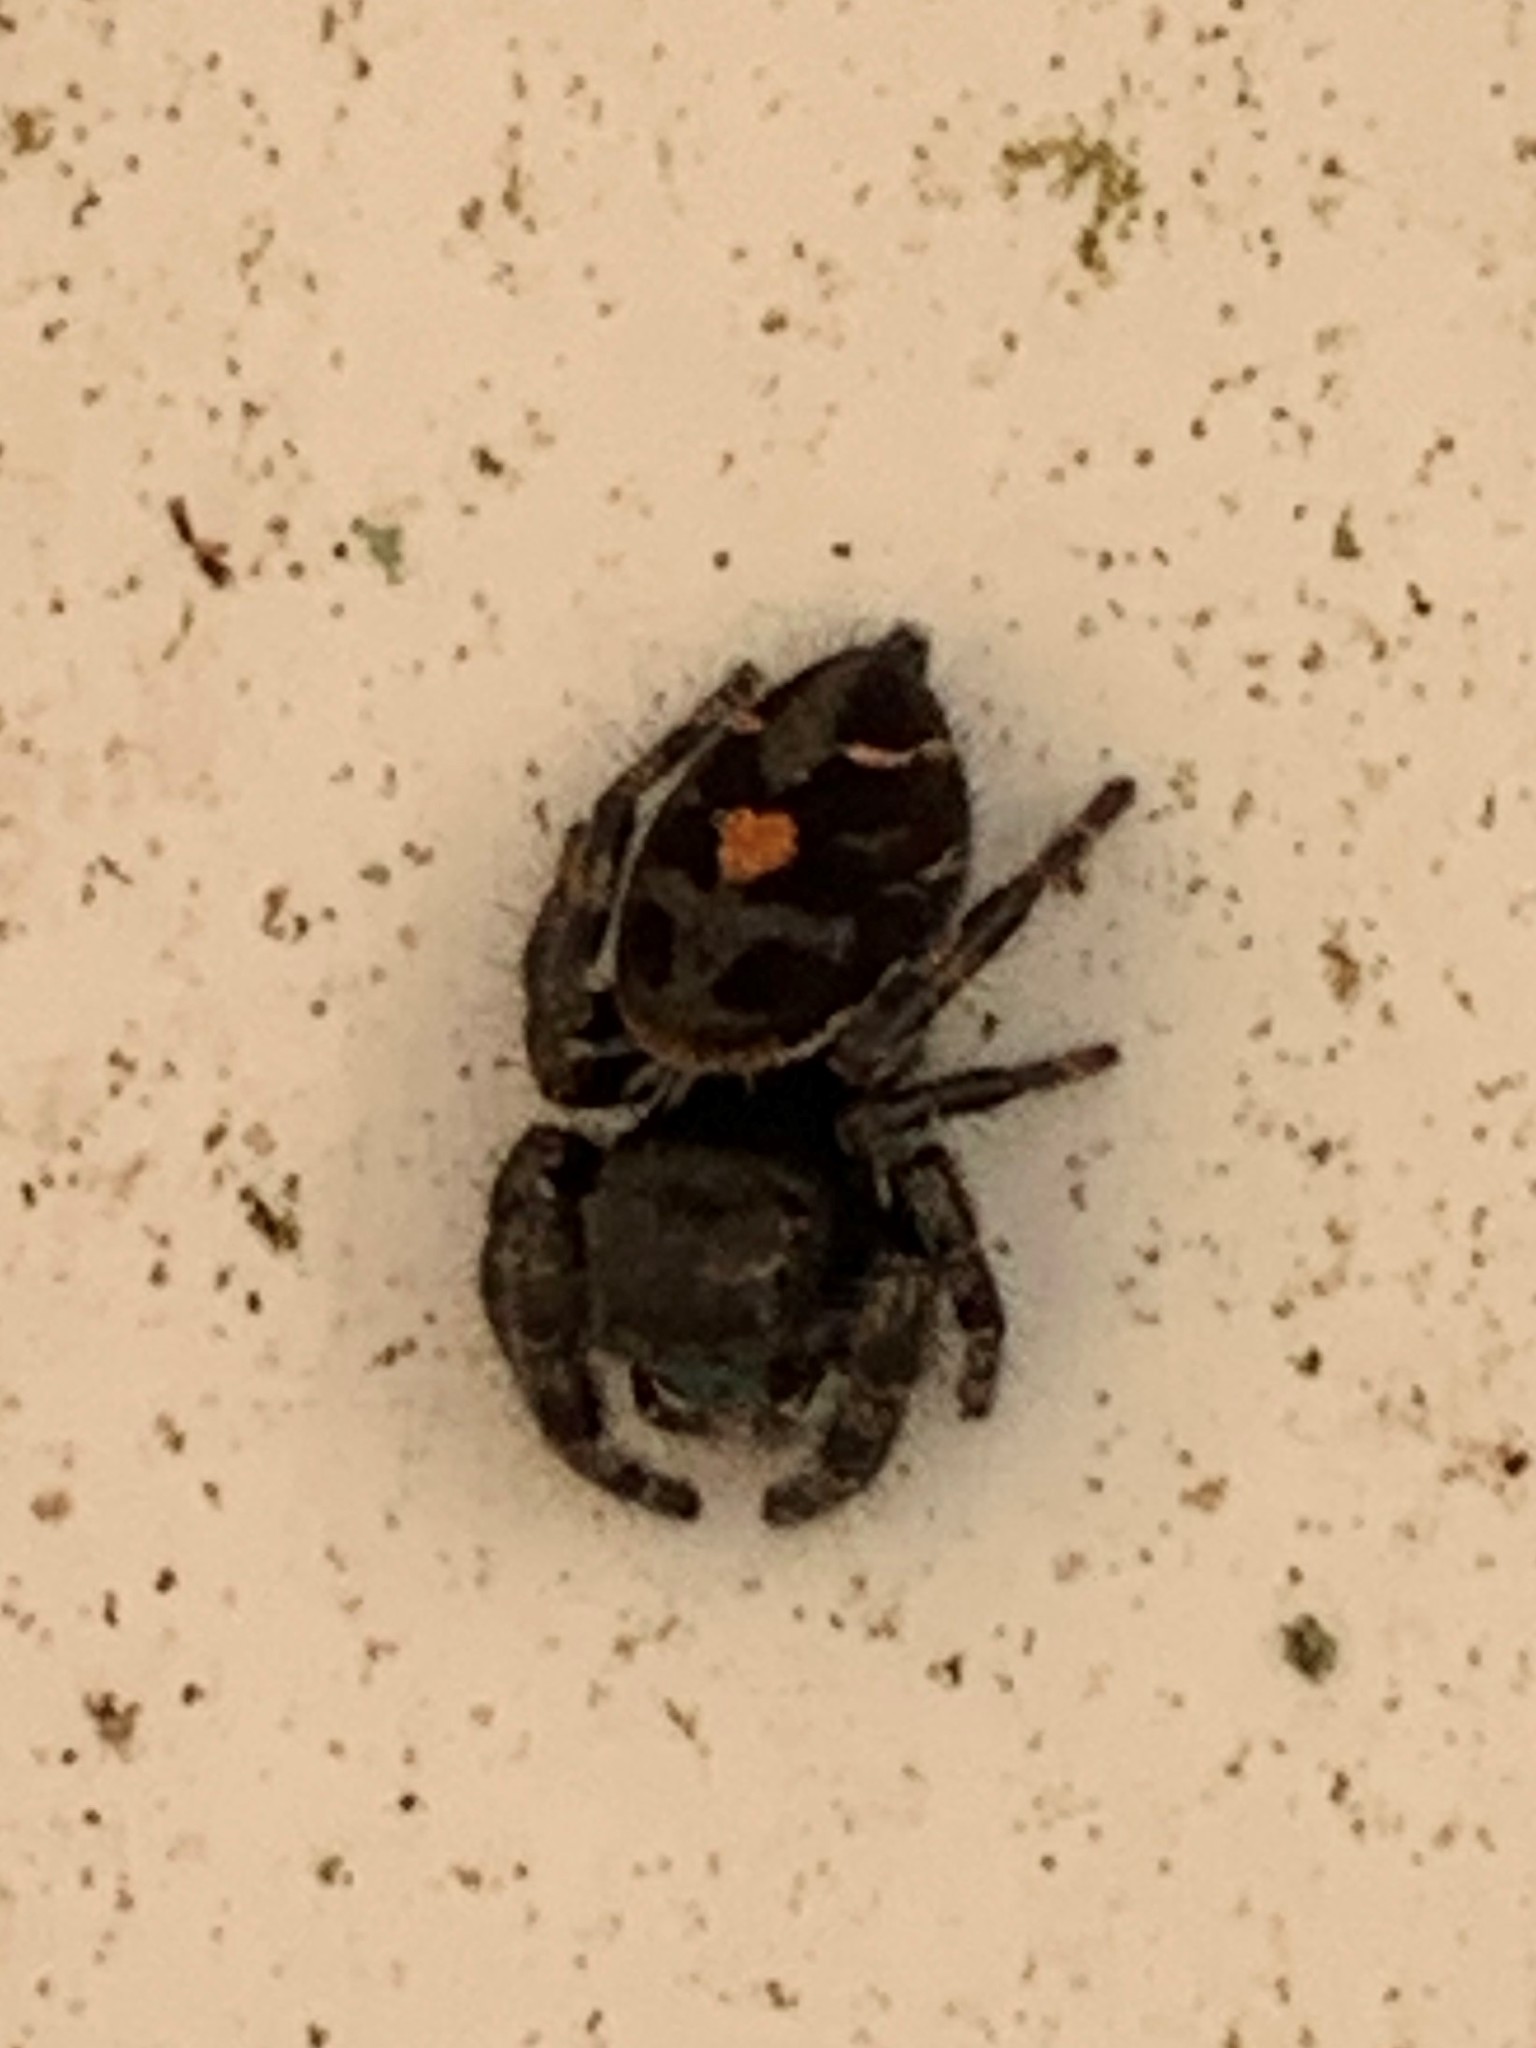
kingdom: Animalia
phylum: Arthropoda
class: Arachnida
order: Araneae
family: Salticidae
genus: Phidippus
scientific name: Phidippus audax
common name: Bold jumper
